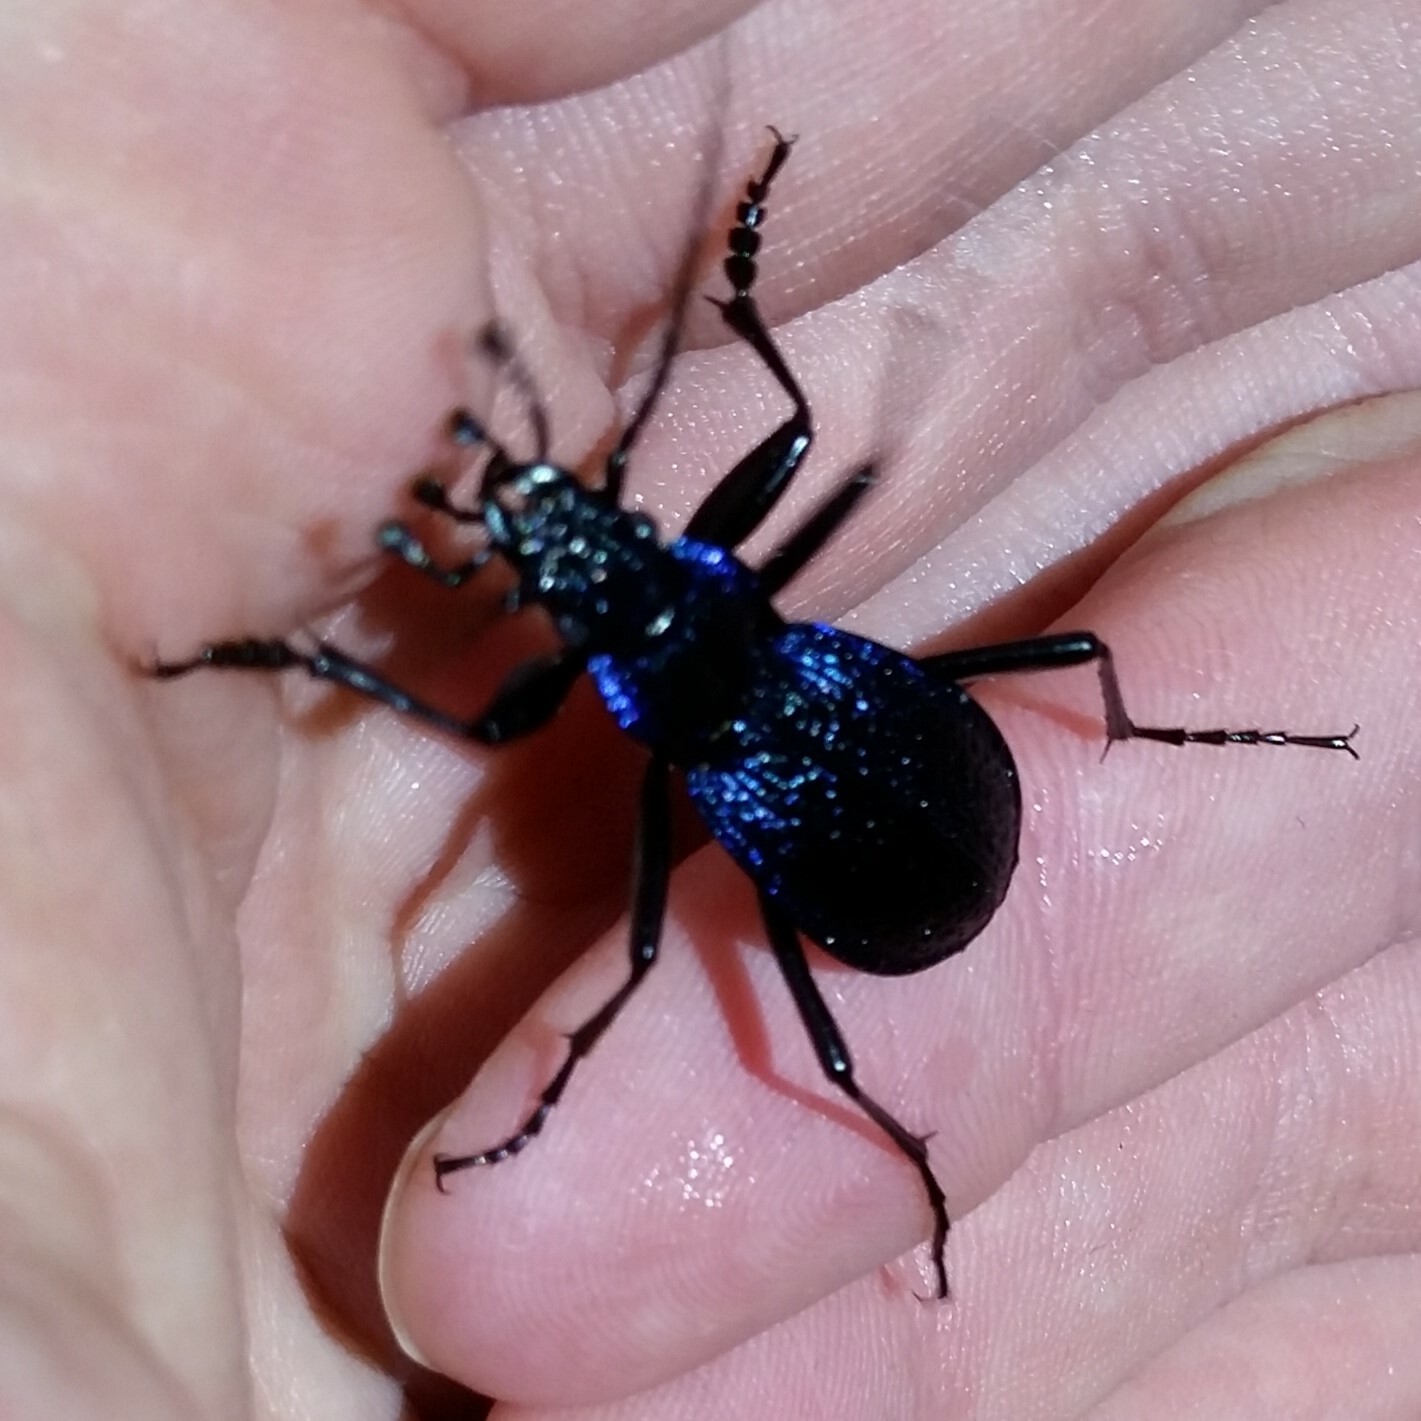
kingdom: Animalia
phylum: Arthropoda
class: Insecta
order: Coleoptera
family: Carabidae
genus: Carabus
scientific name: Carabus intricatus
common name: Blue ground beetle
